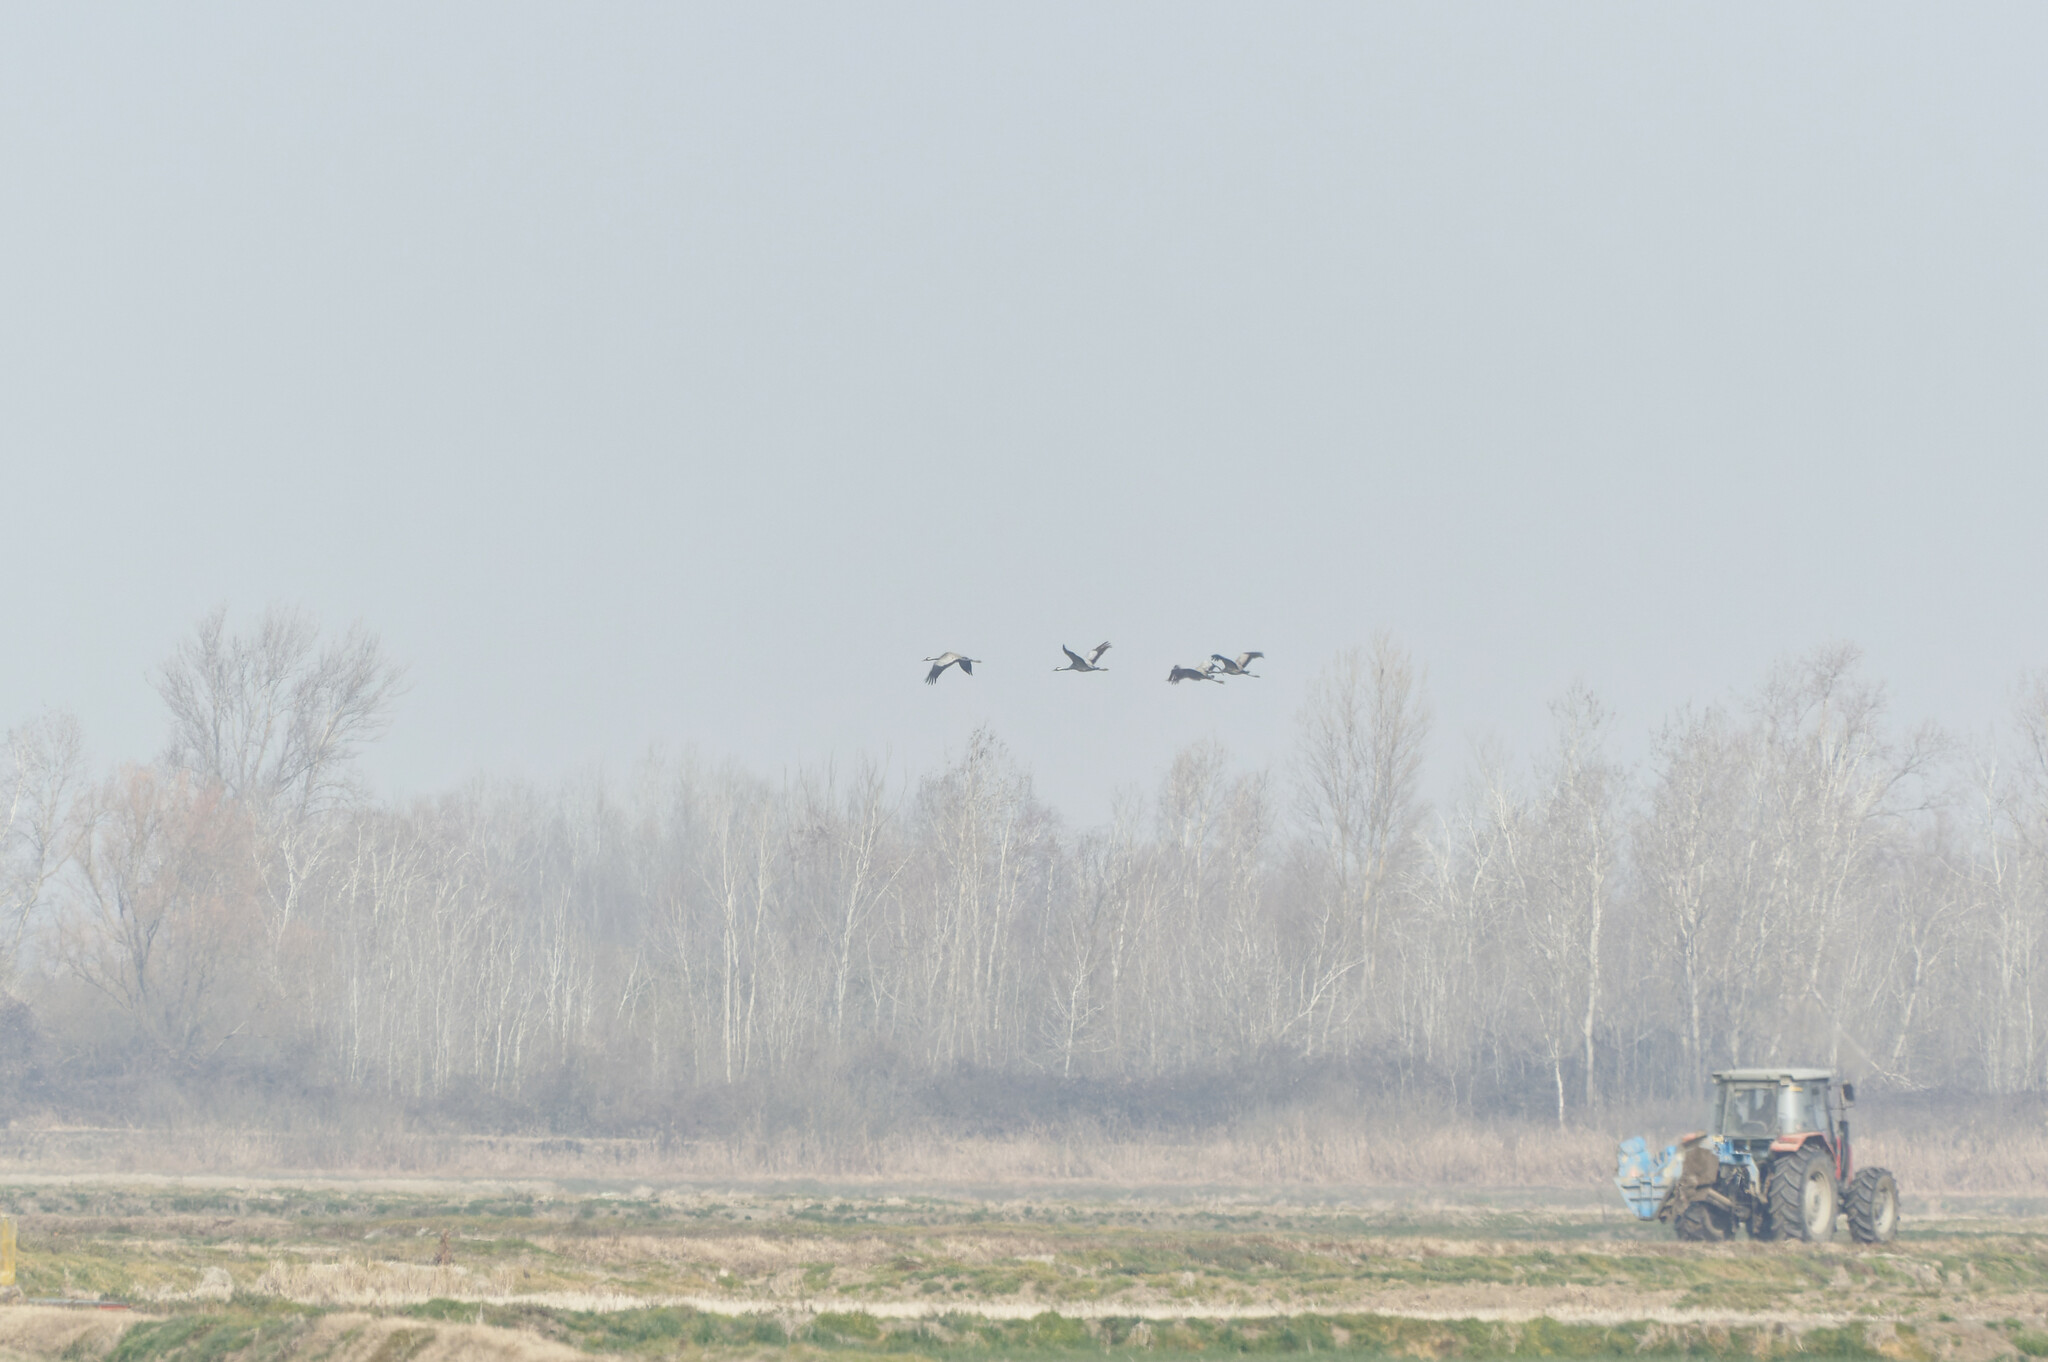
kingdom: Animalia
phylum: Chordata
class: Aves
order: Gruiformes
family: Gruidae
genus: Grus
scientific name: Grus grus
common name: Common crane
